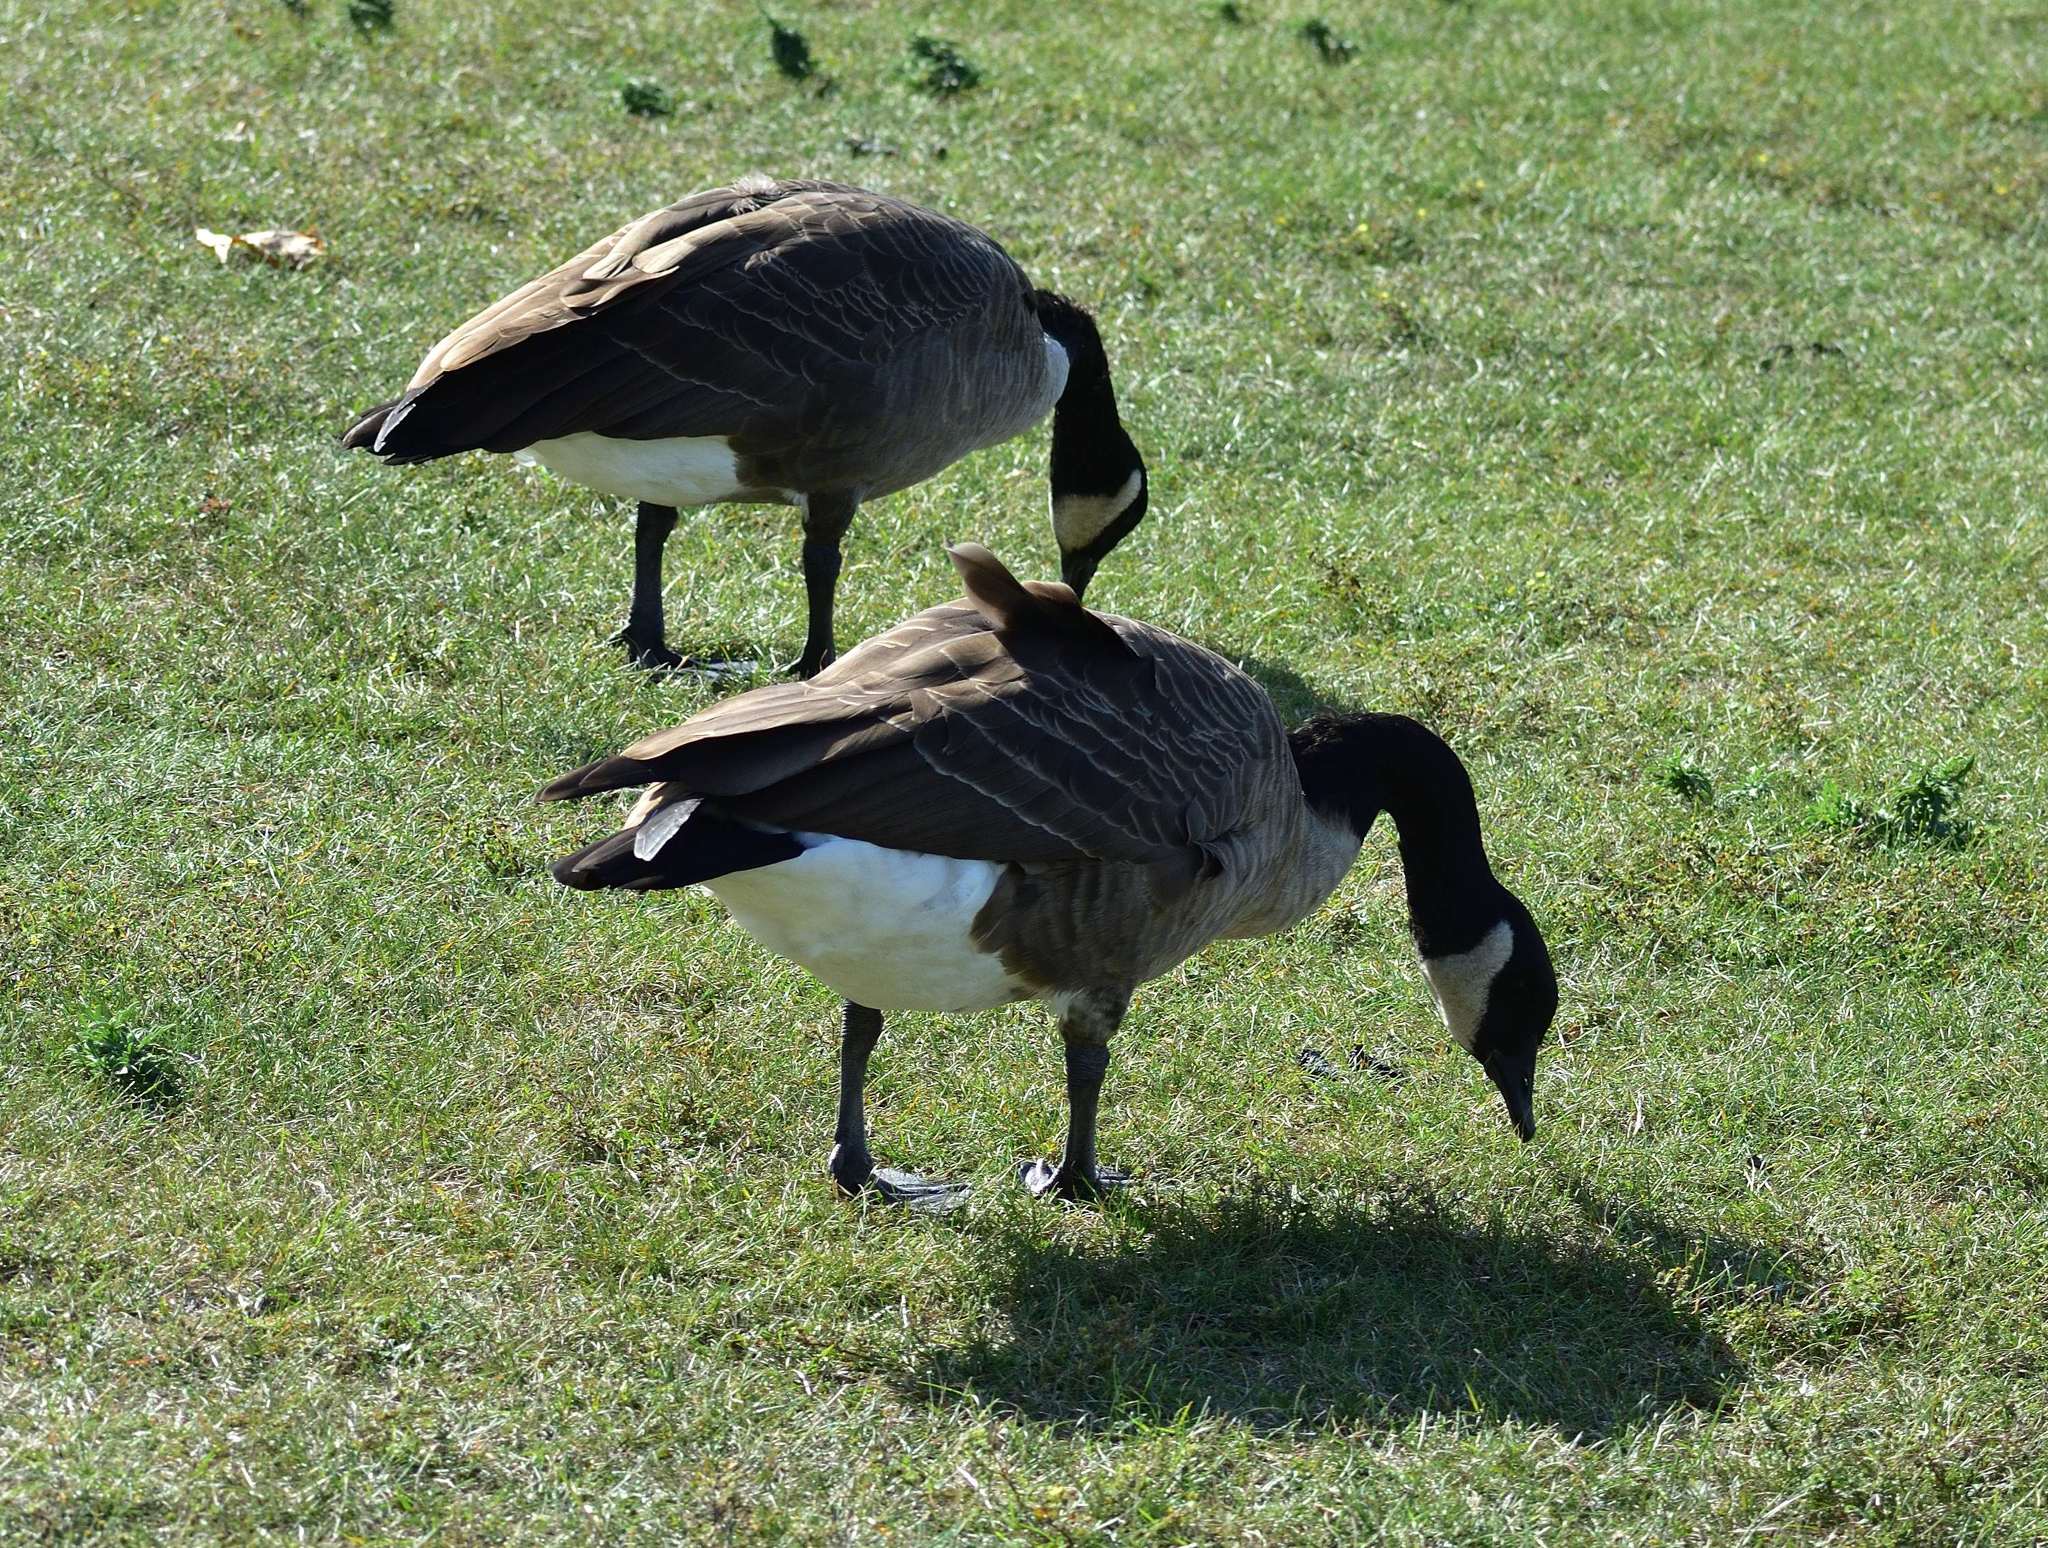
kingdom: Animalia
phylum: Chordata
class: Aves
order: Anseriformes
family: Anatidae
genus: Branta
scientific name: Branta canadensis
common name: Canada goose
